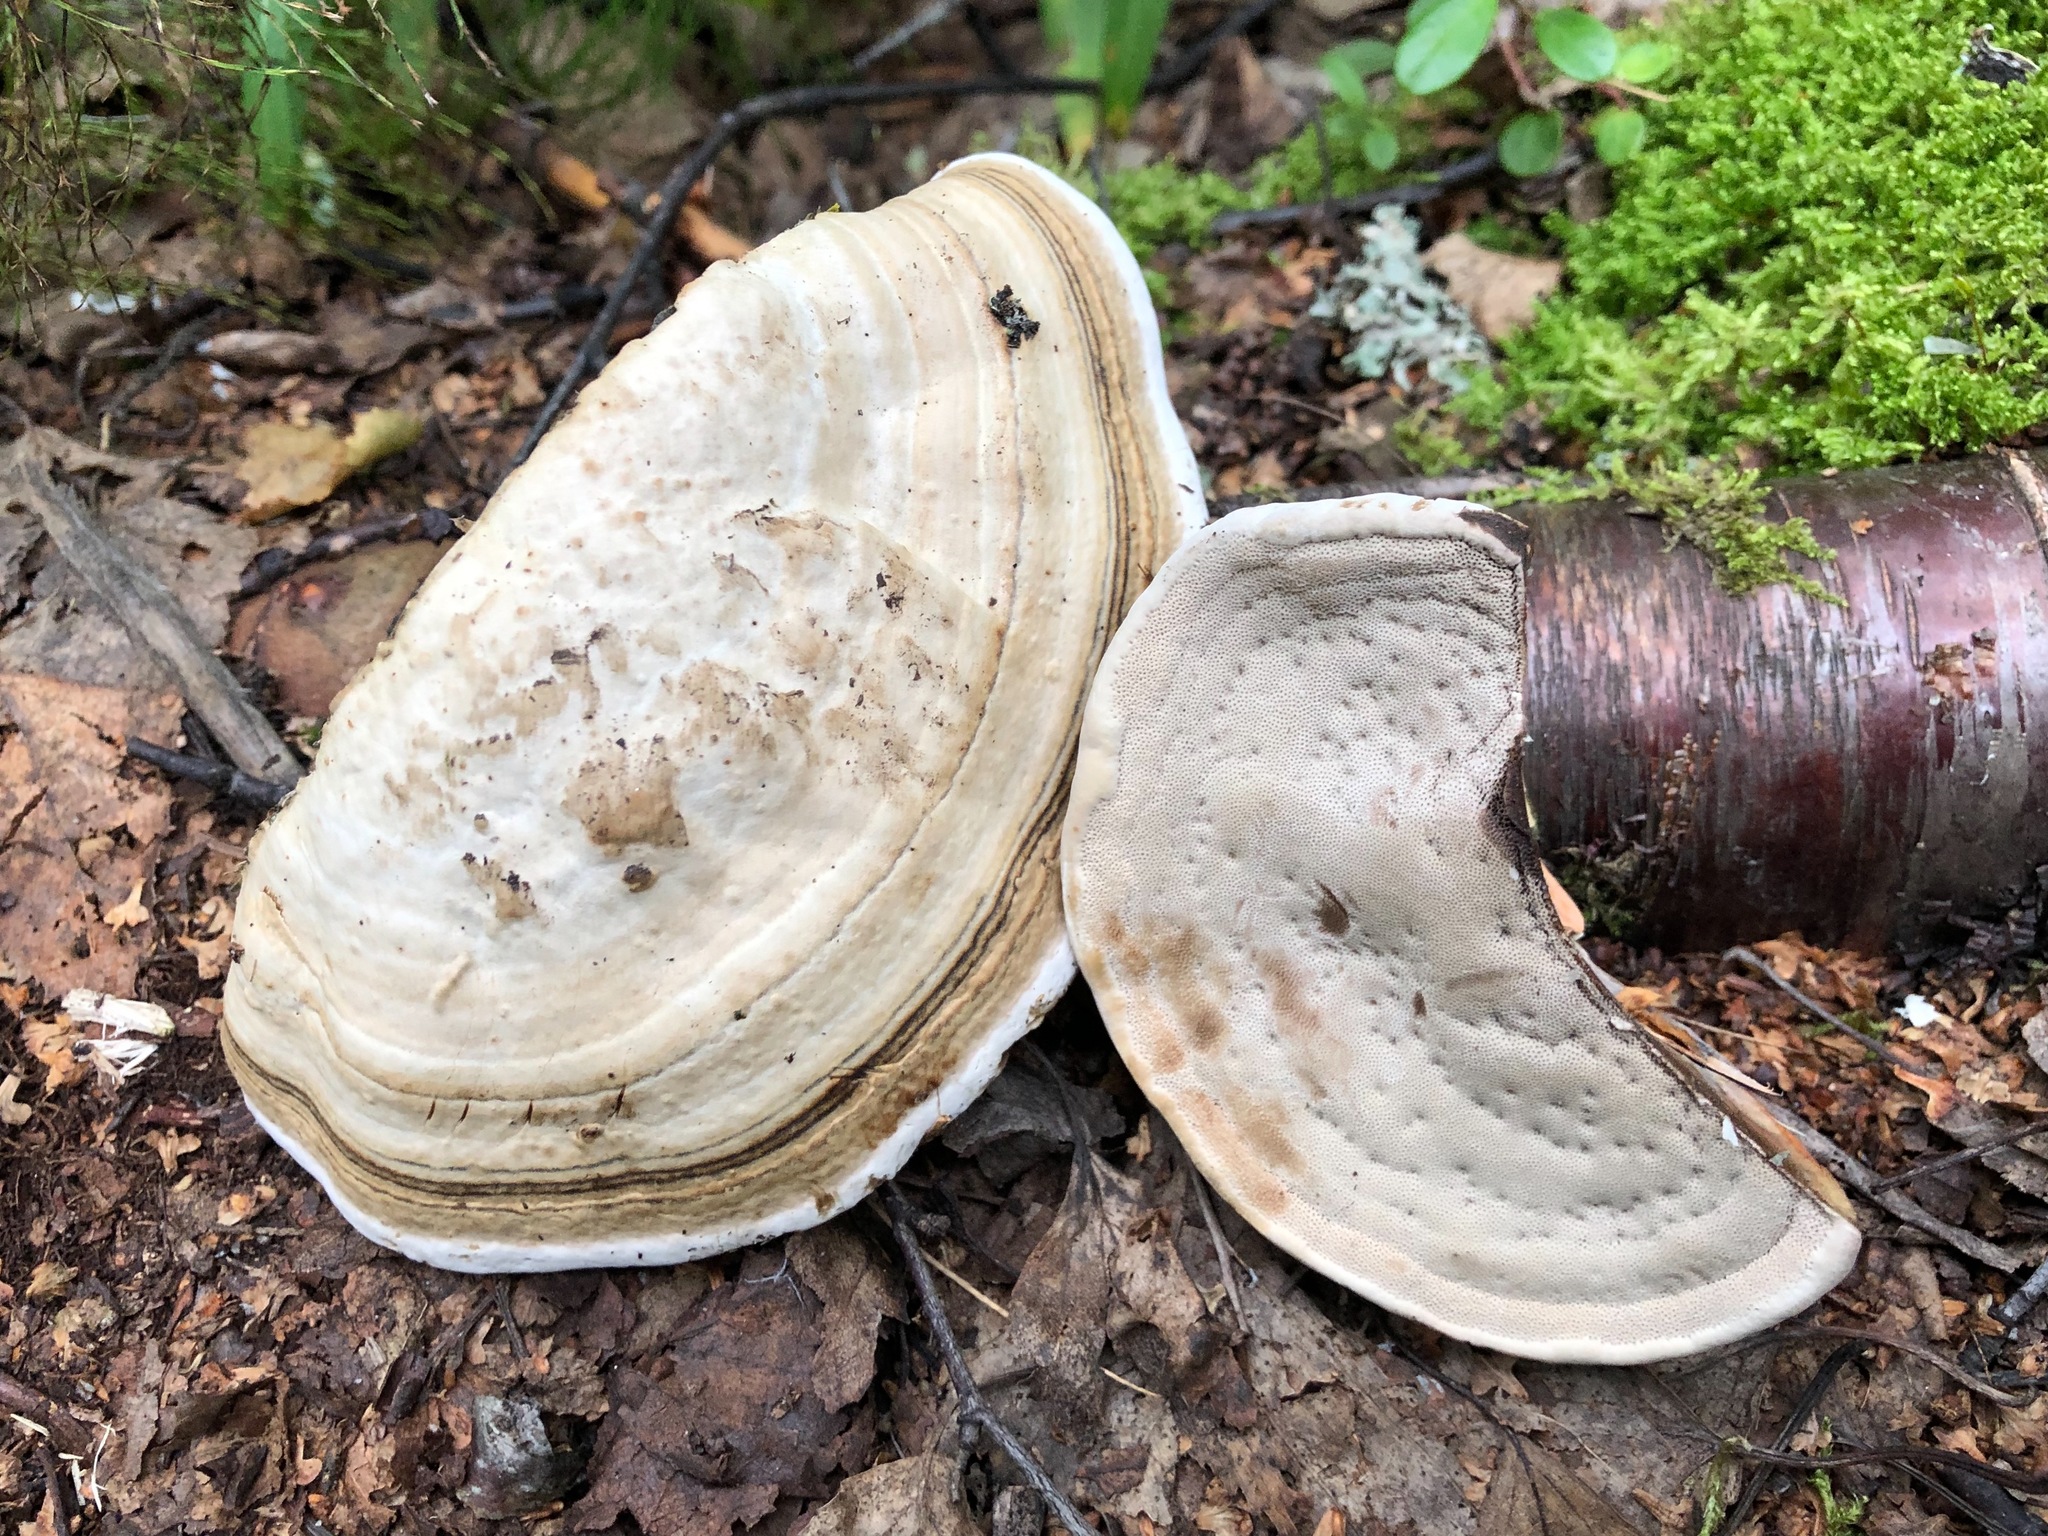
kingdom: Fungi
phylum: Basidiomycota
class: Agaricomycetes
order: Polyporales
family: Polyporaceae
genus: Fomes
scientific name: Fomes fomentarius
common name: Hoof fungus
